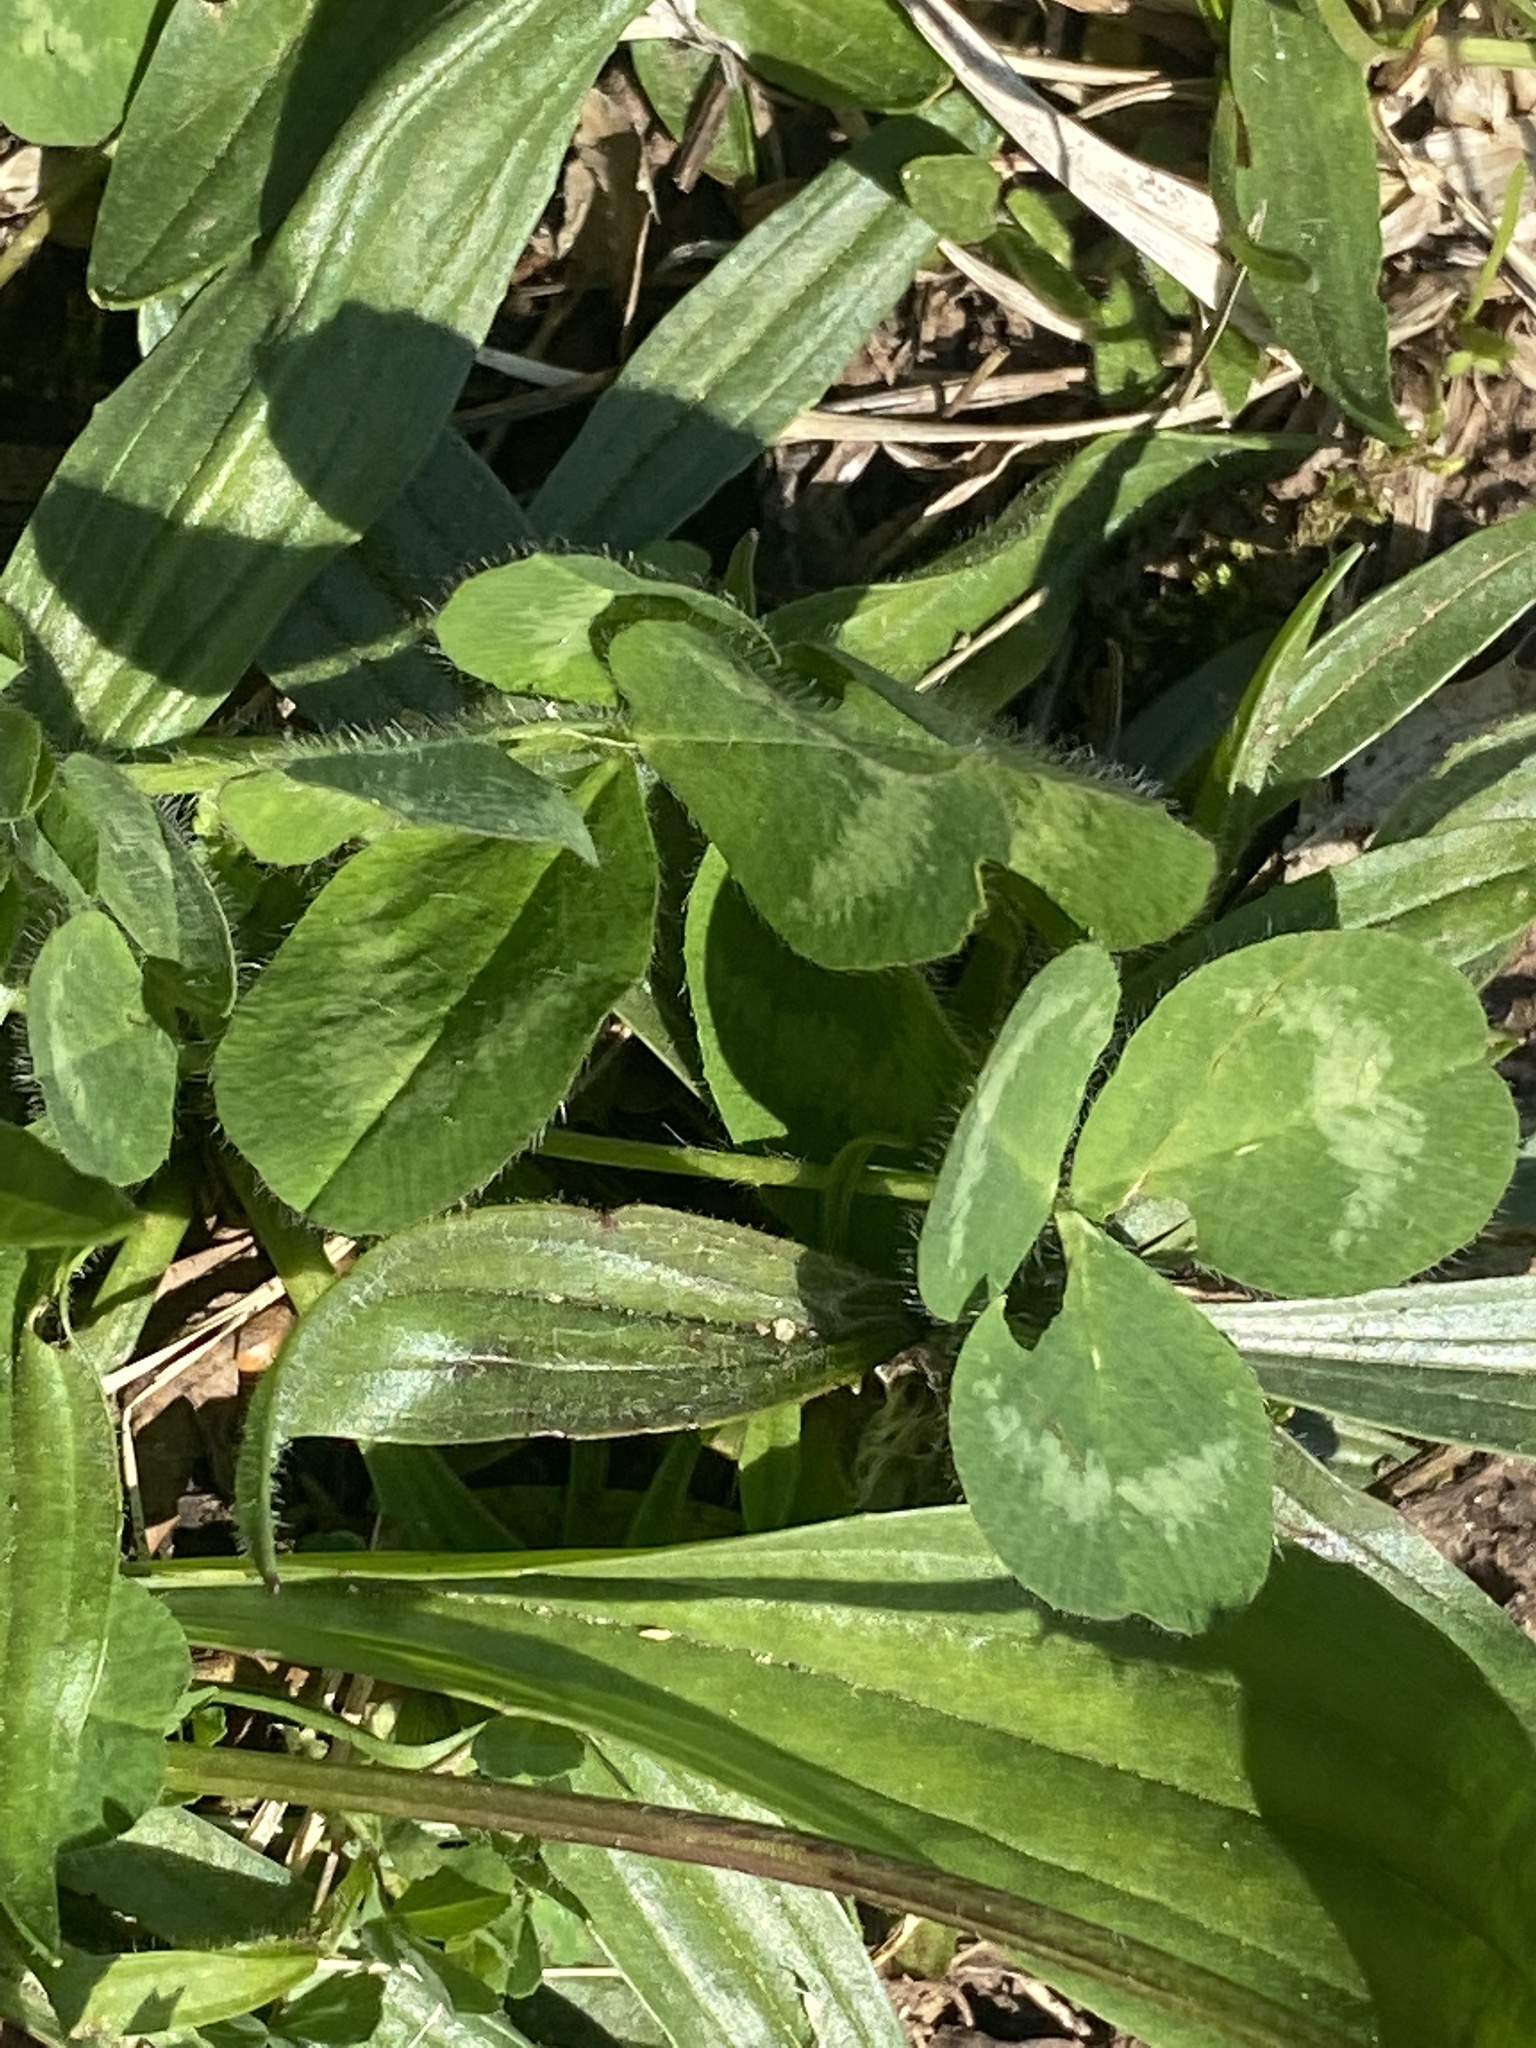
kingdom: Plantae
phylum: Tracheophyta
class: Magnoliopsida
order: Fabales
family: Fabaceae
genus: Trifolium
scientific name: Trifolium pratense
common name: Red clover
